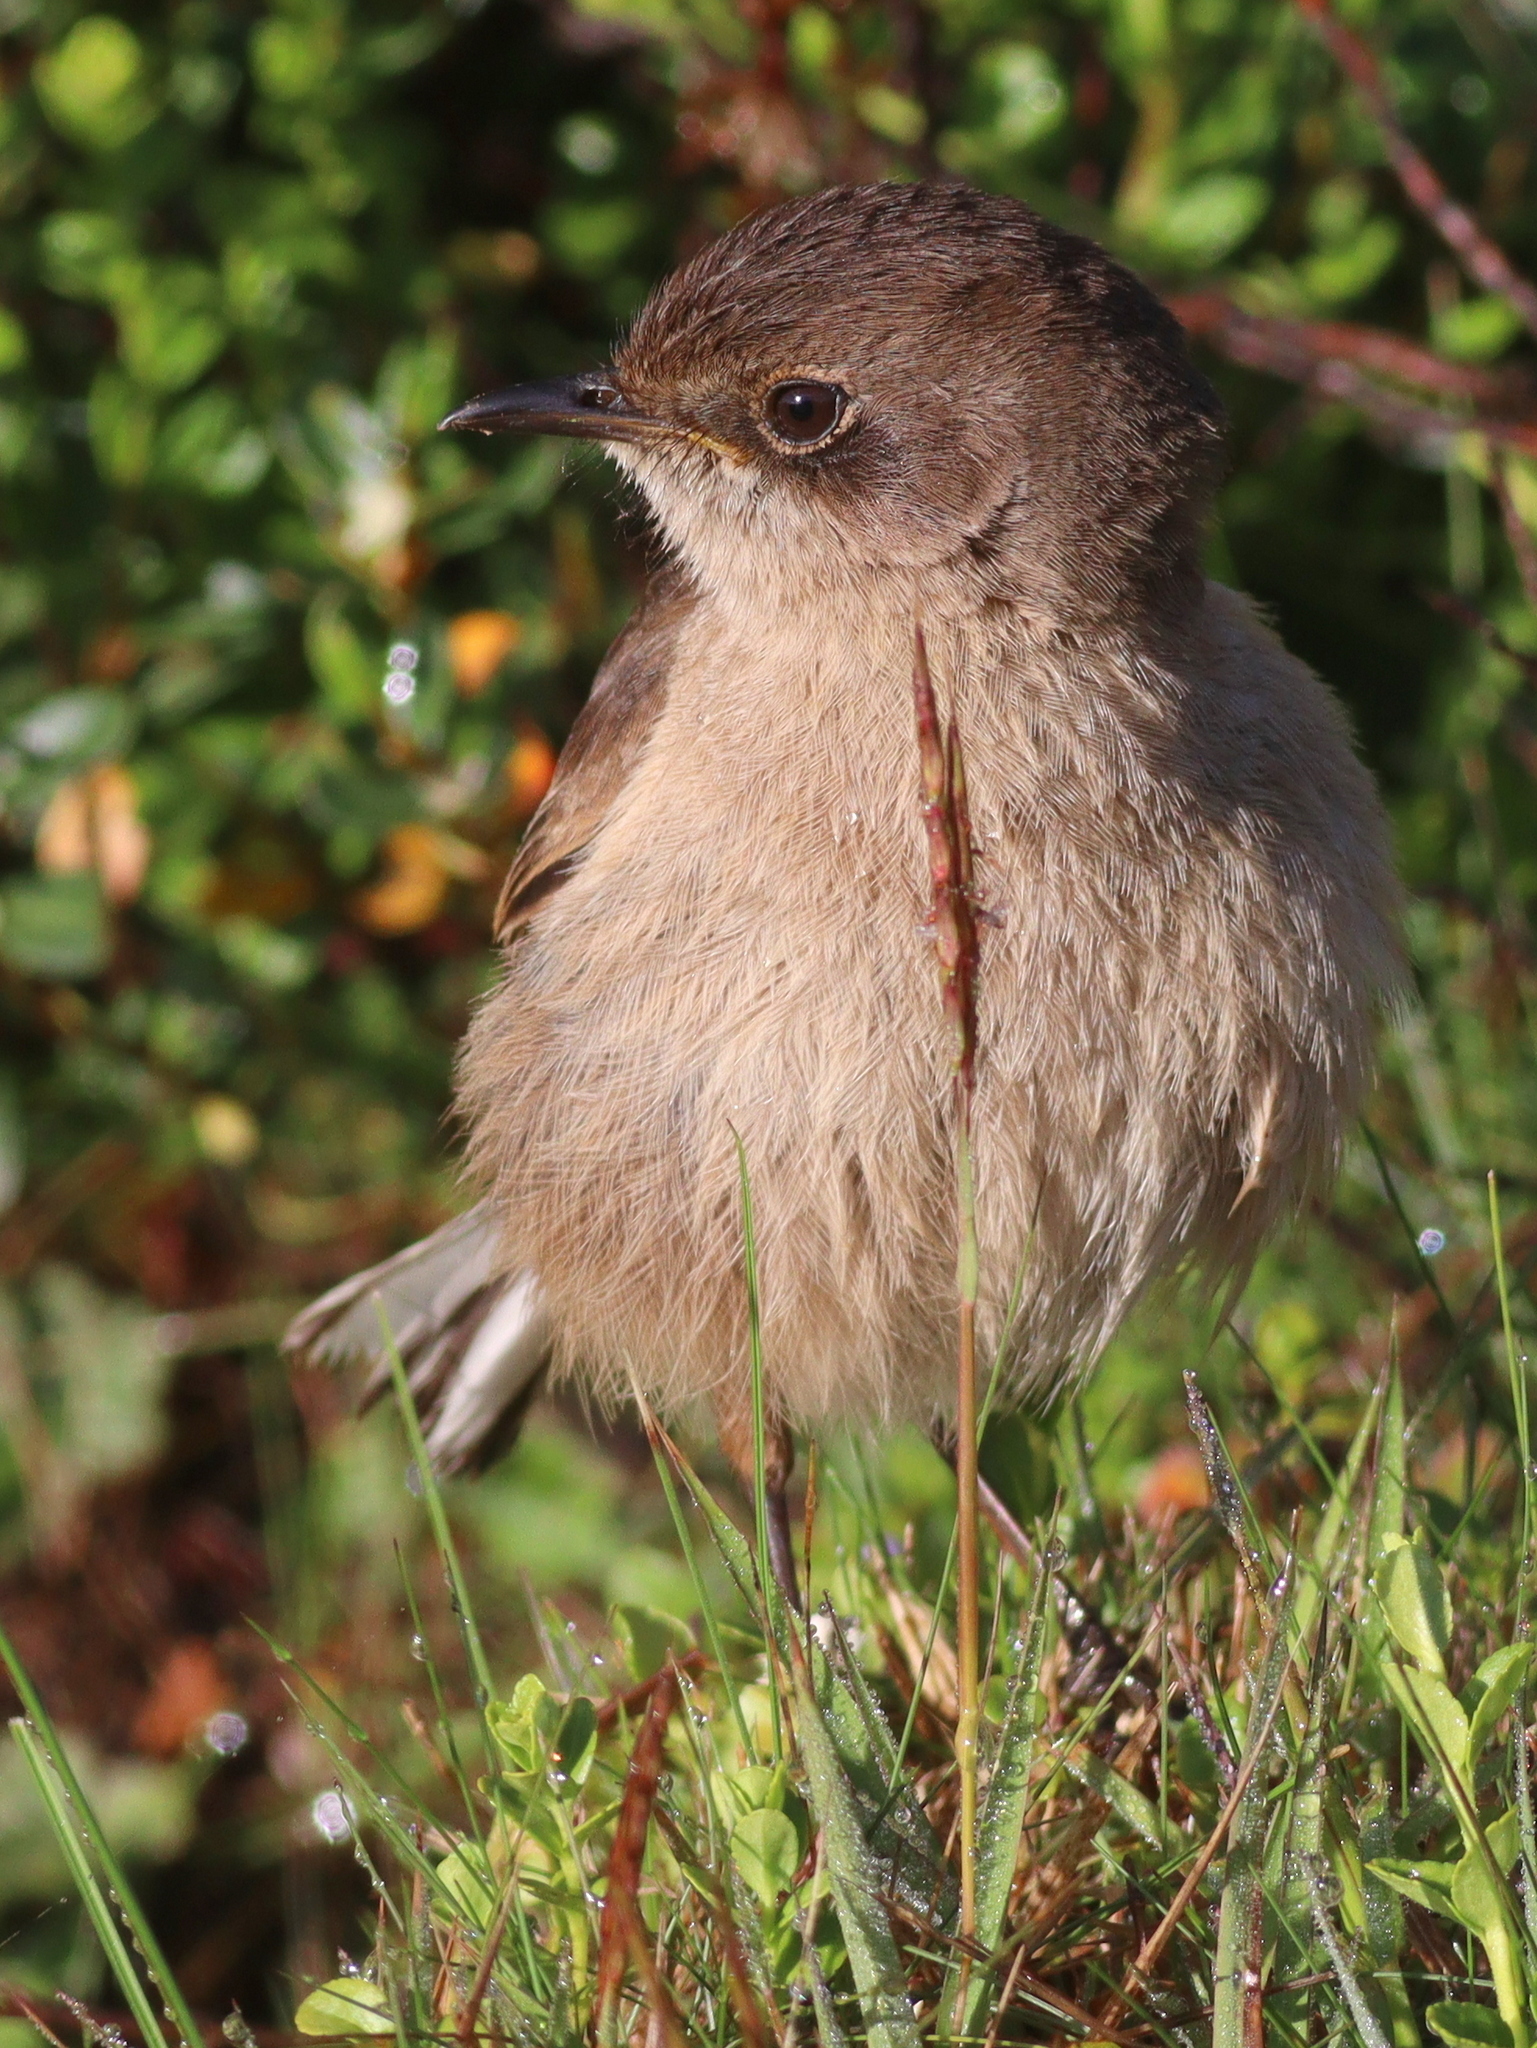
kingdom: Animalia
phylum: Chordata
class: Aves
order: Passeriformes
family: Muscicapidae
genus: Pinarochroa
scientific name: Pinarochroa sordida
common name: Moorland chat
